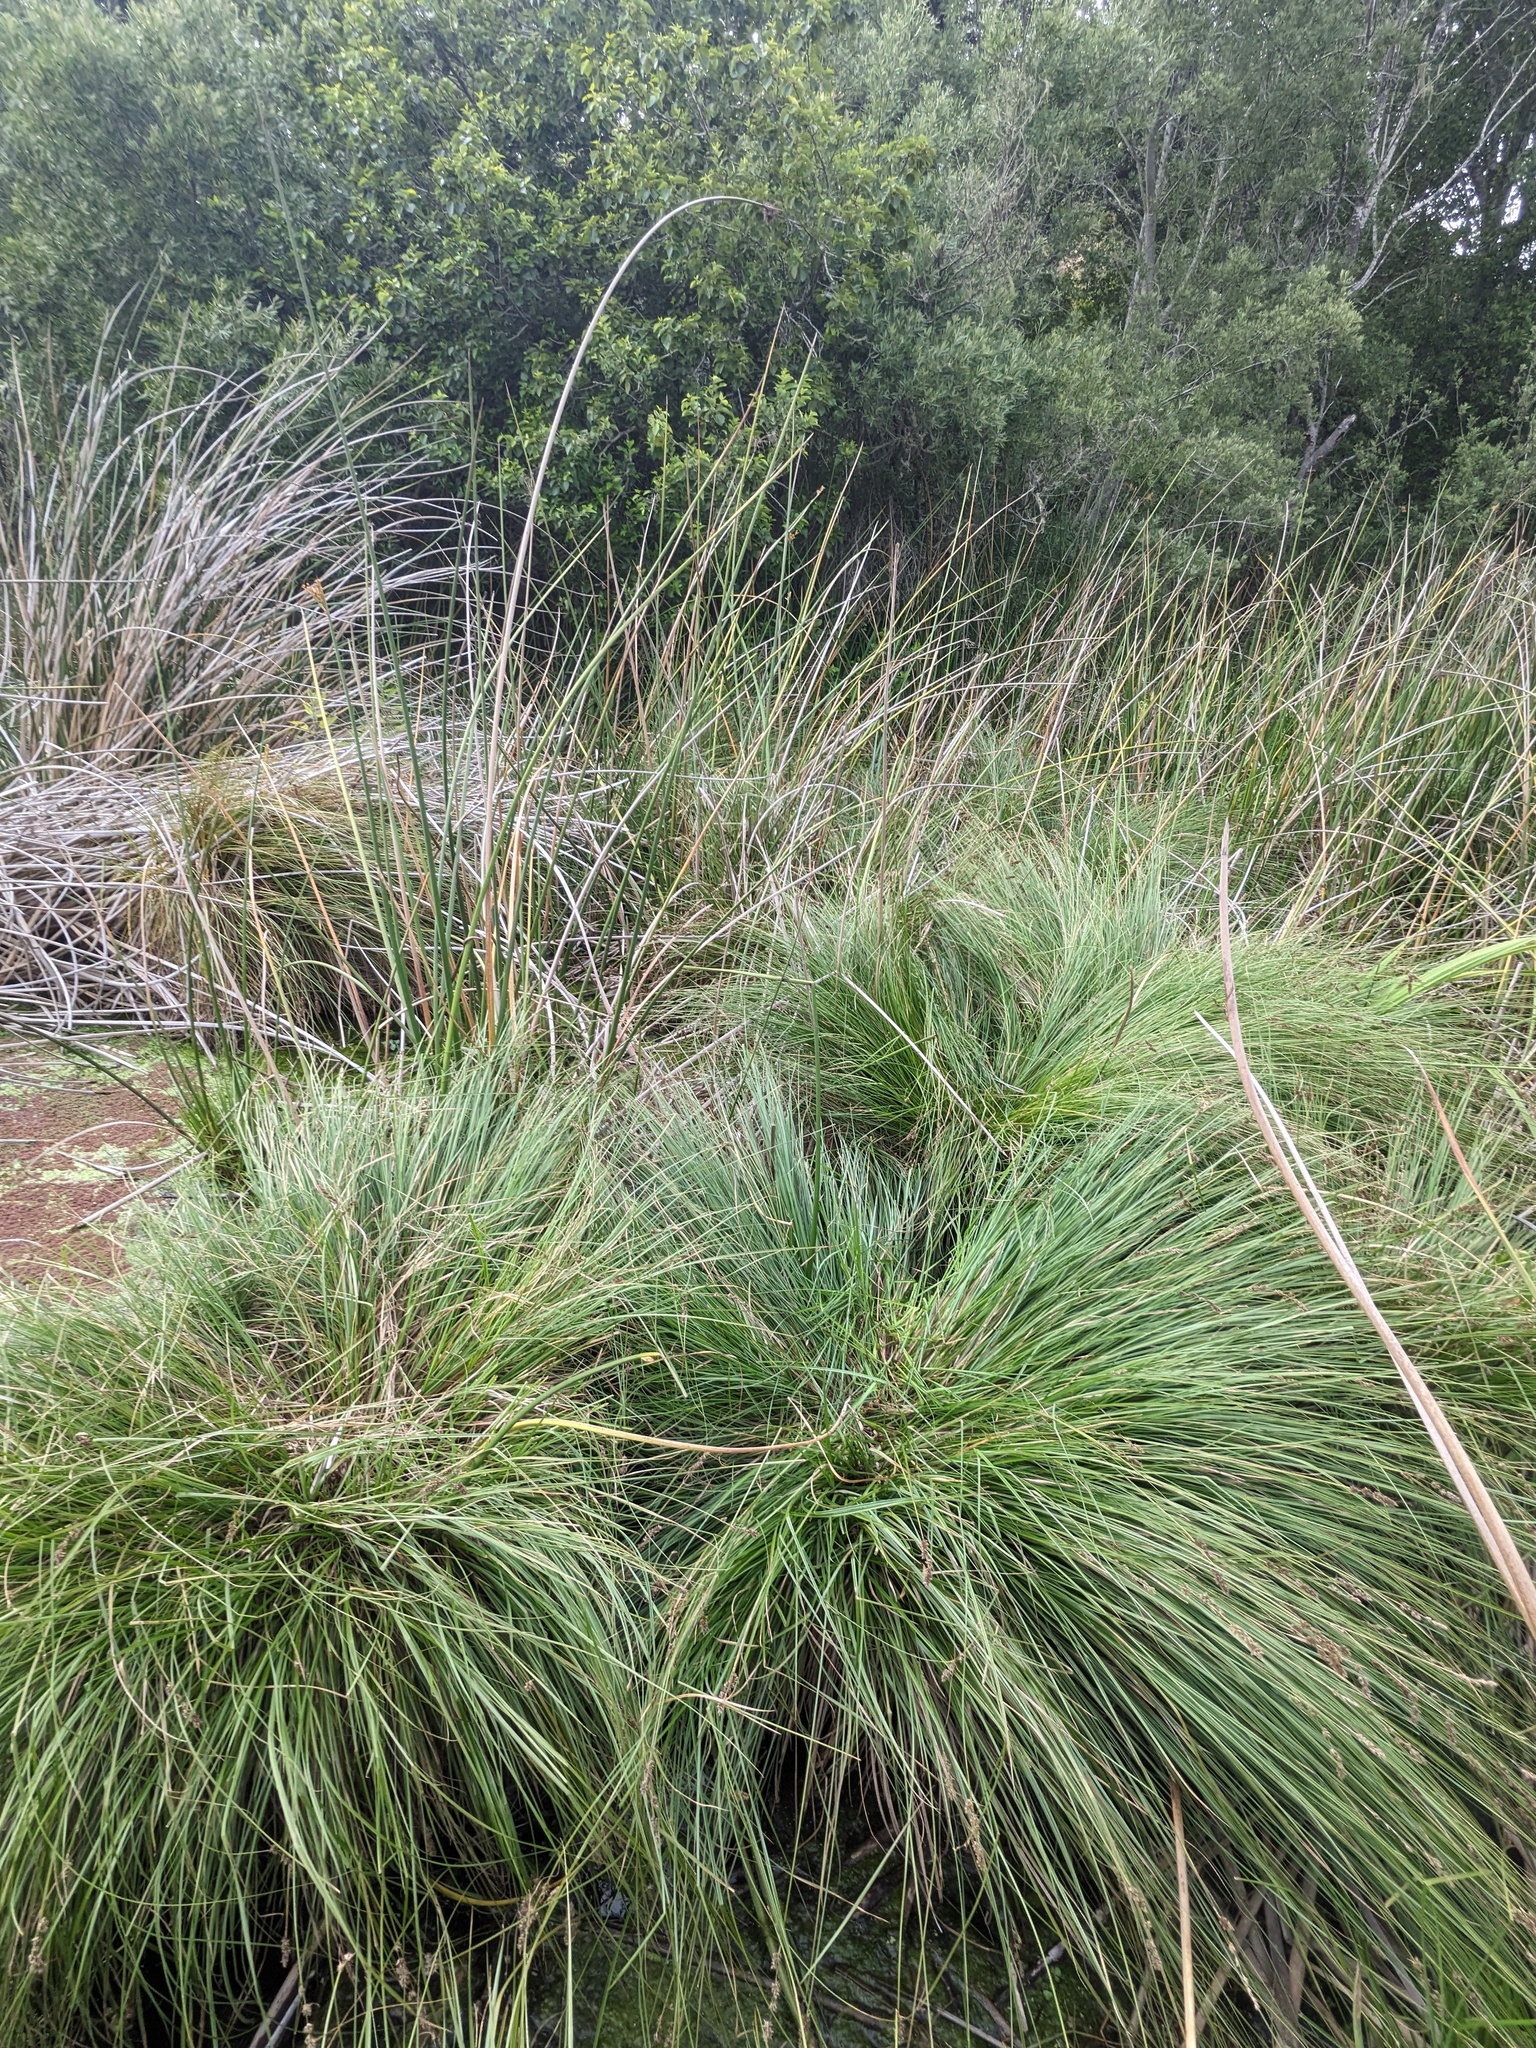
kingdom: Plantae
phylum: Tracheophyta
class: Liliopsida
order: Poales
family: Cyperaceae
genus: Carex
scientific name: Carex diandra
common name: Lesser tussock-sedge
